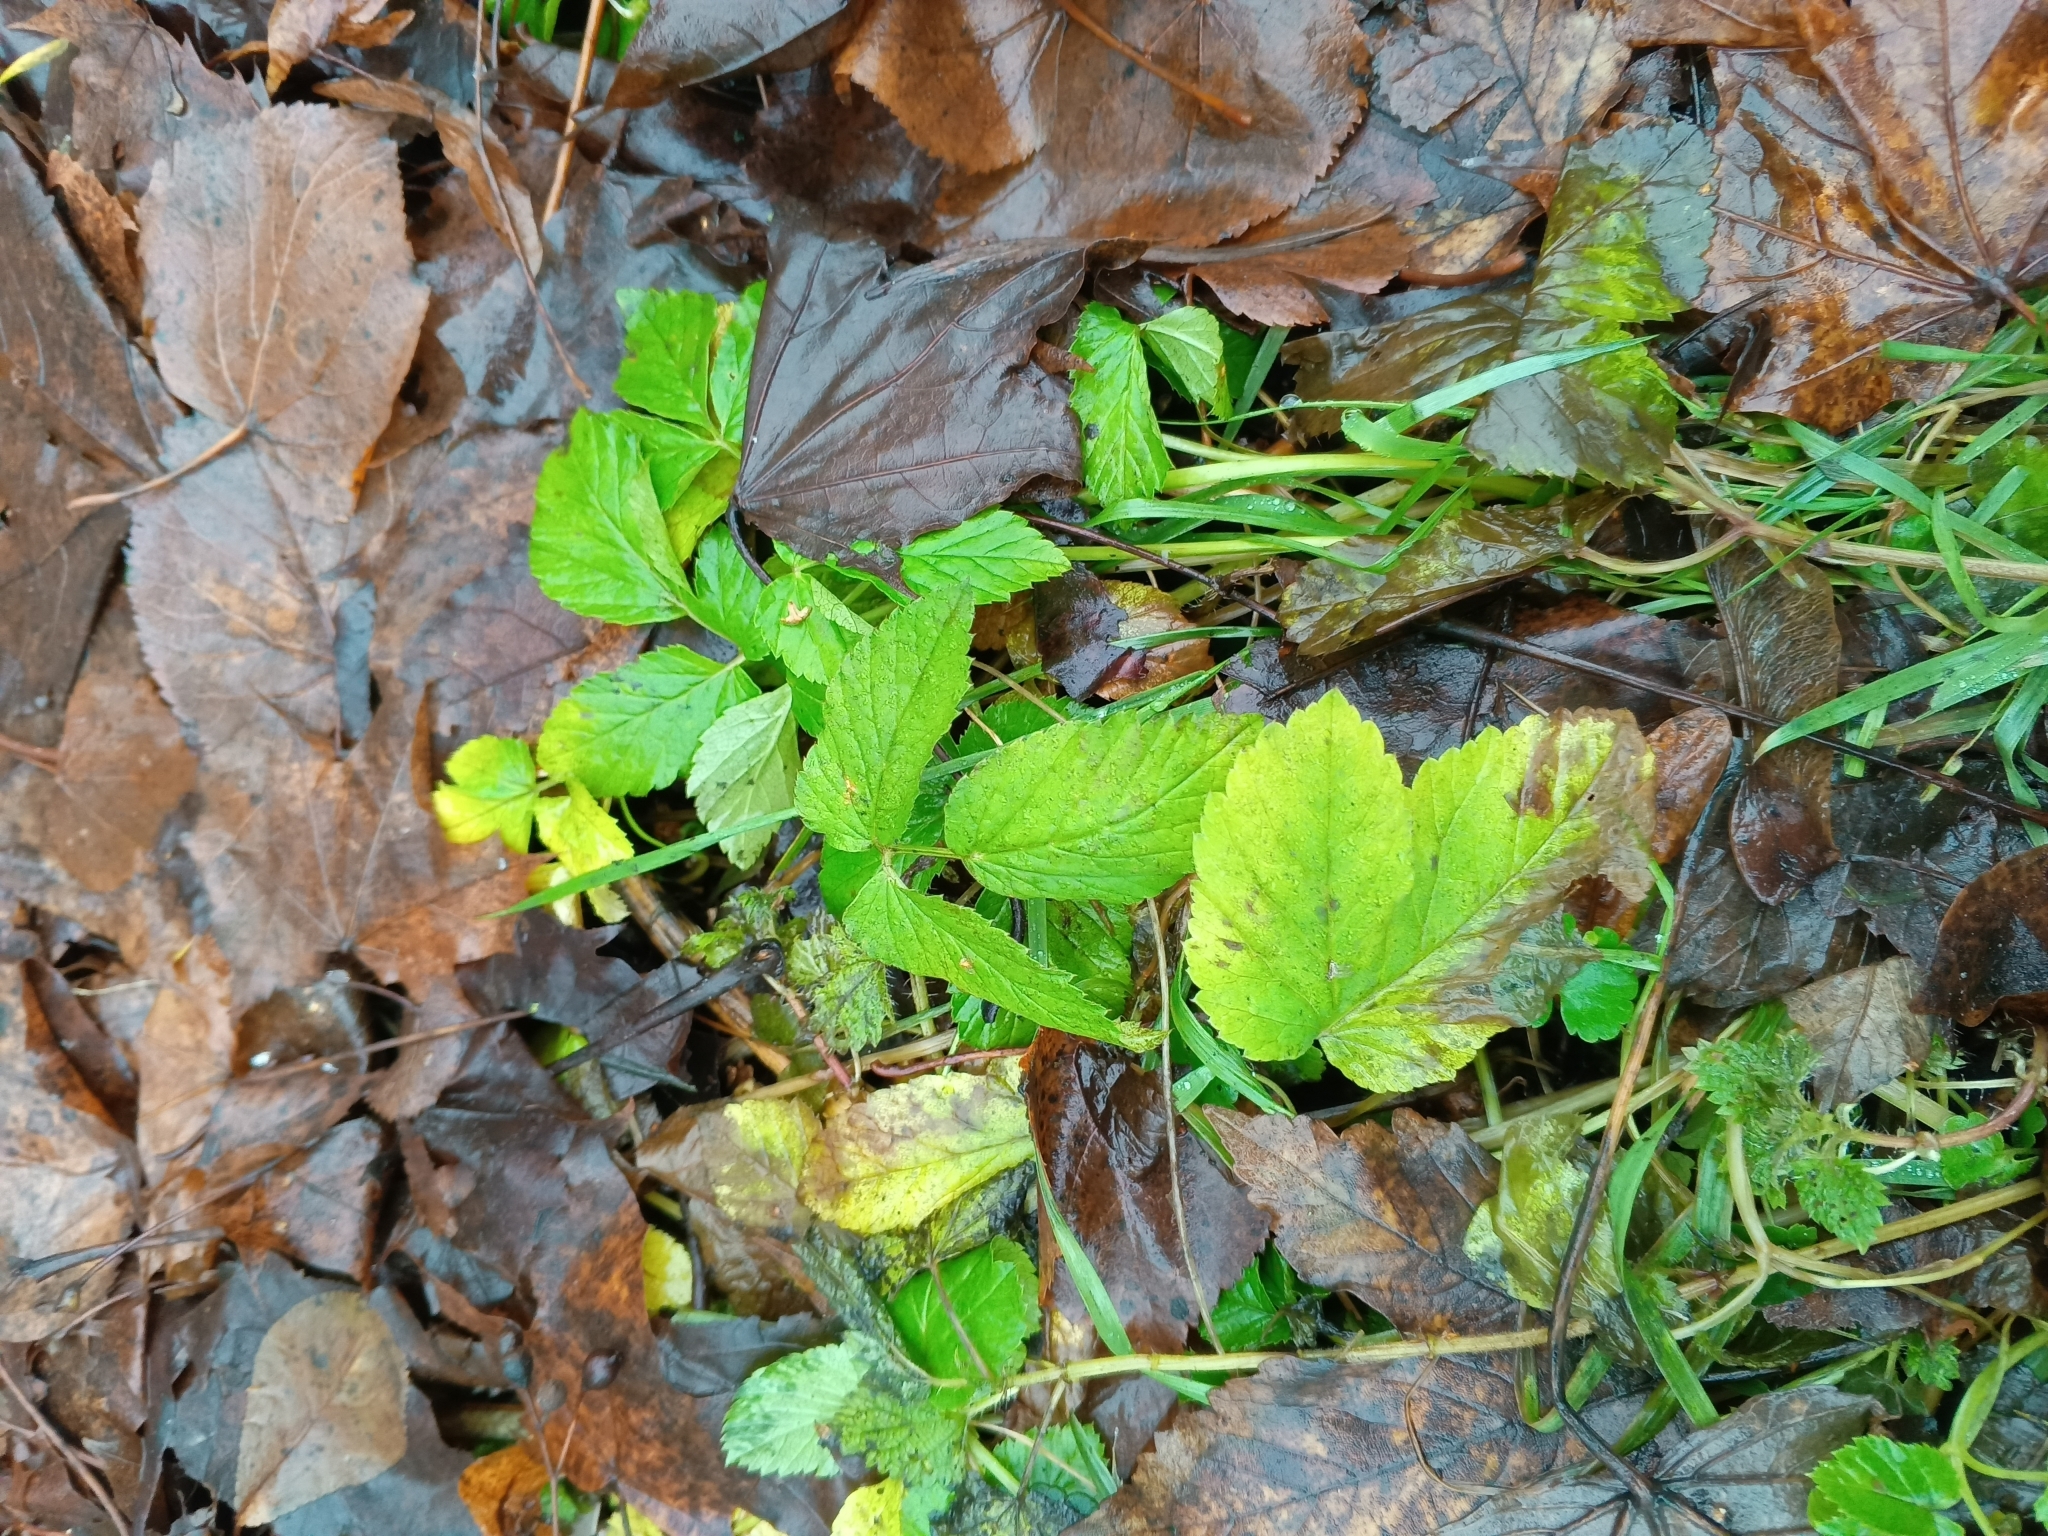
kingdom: Plantae
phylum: Tracheophyta
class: Magnoliopsida
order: Apiales
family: Apiaceae
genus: Aegopodium
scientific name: Aegopodium podagraria
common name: Ground-elder
